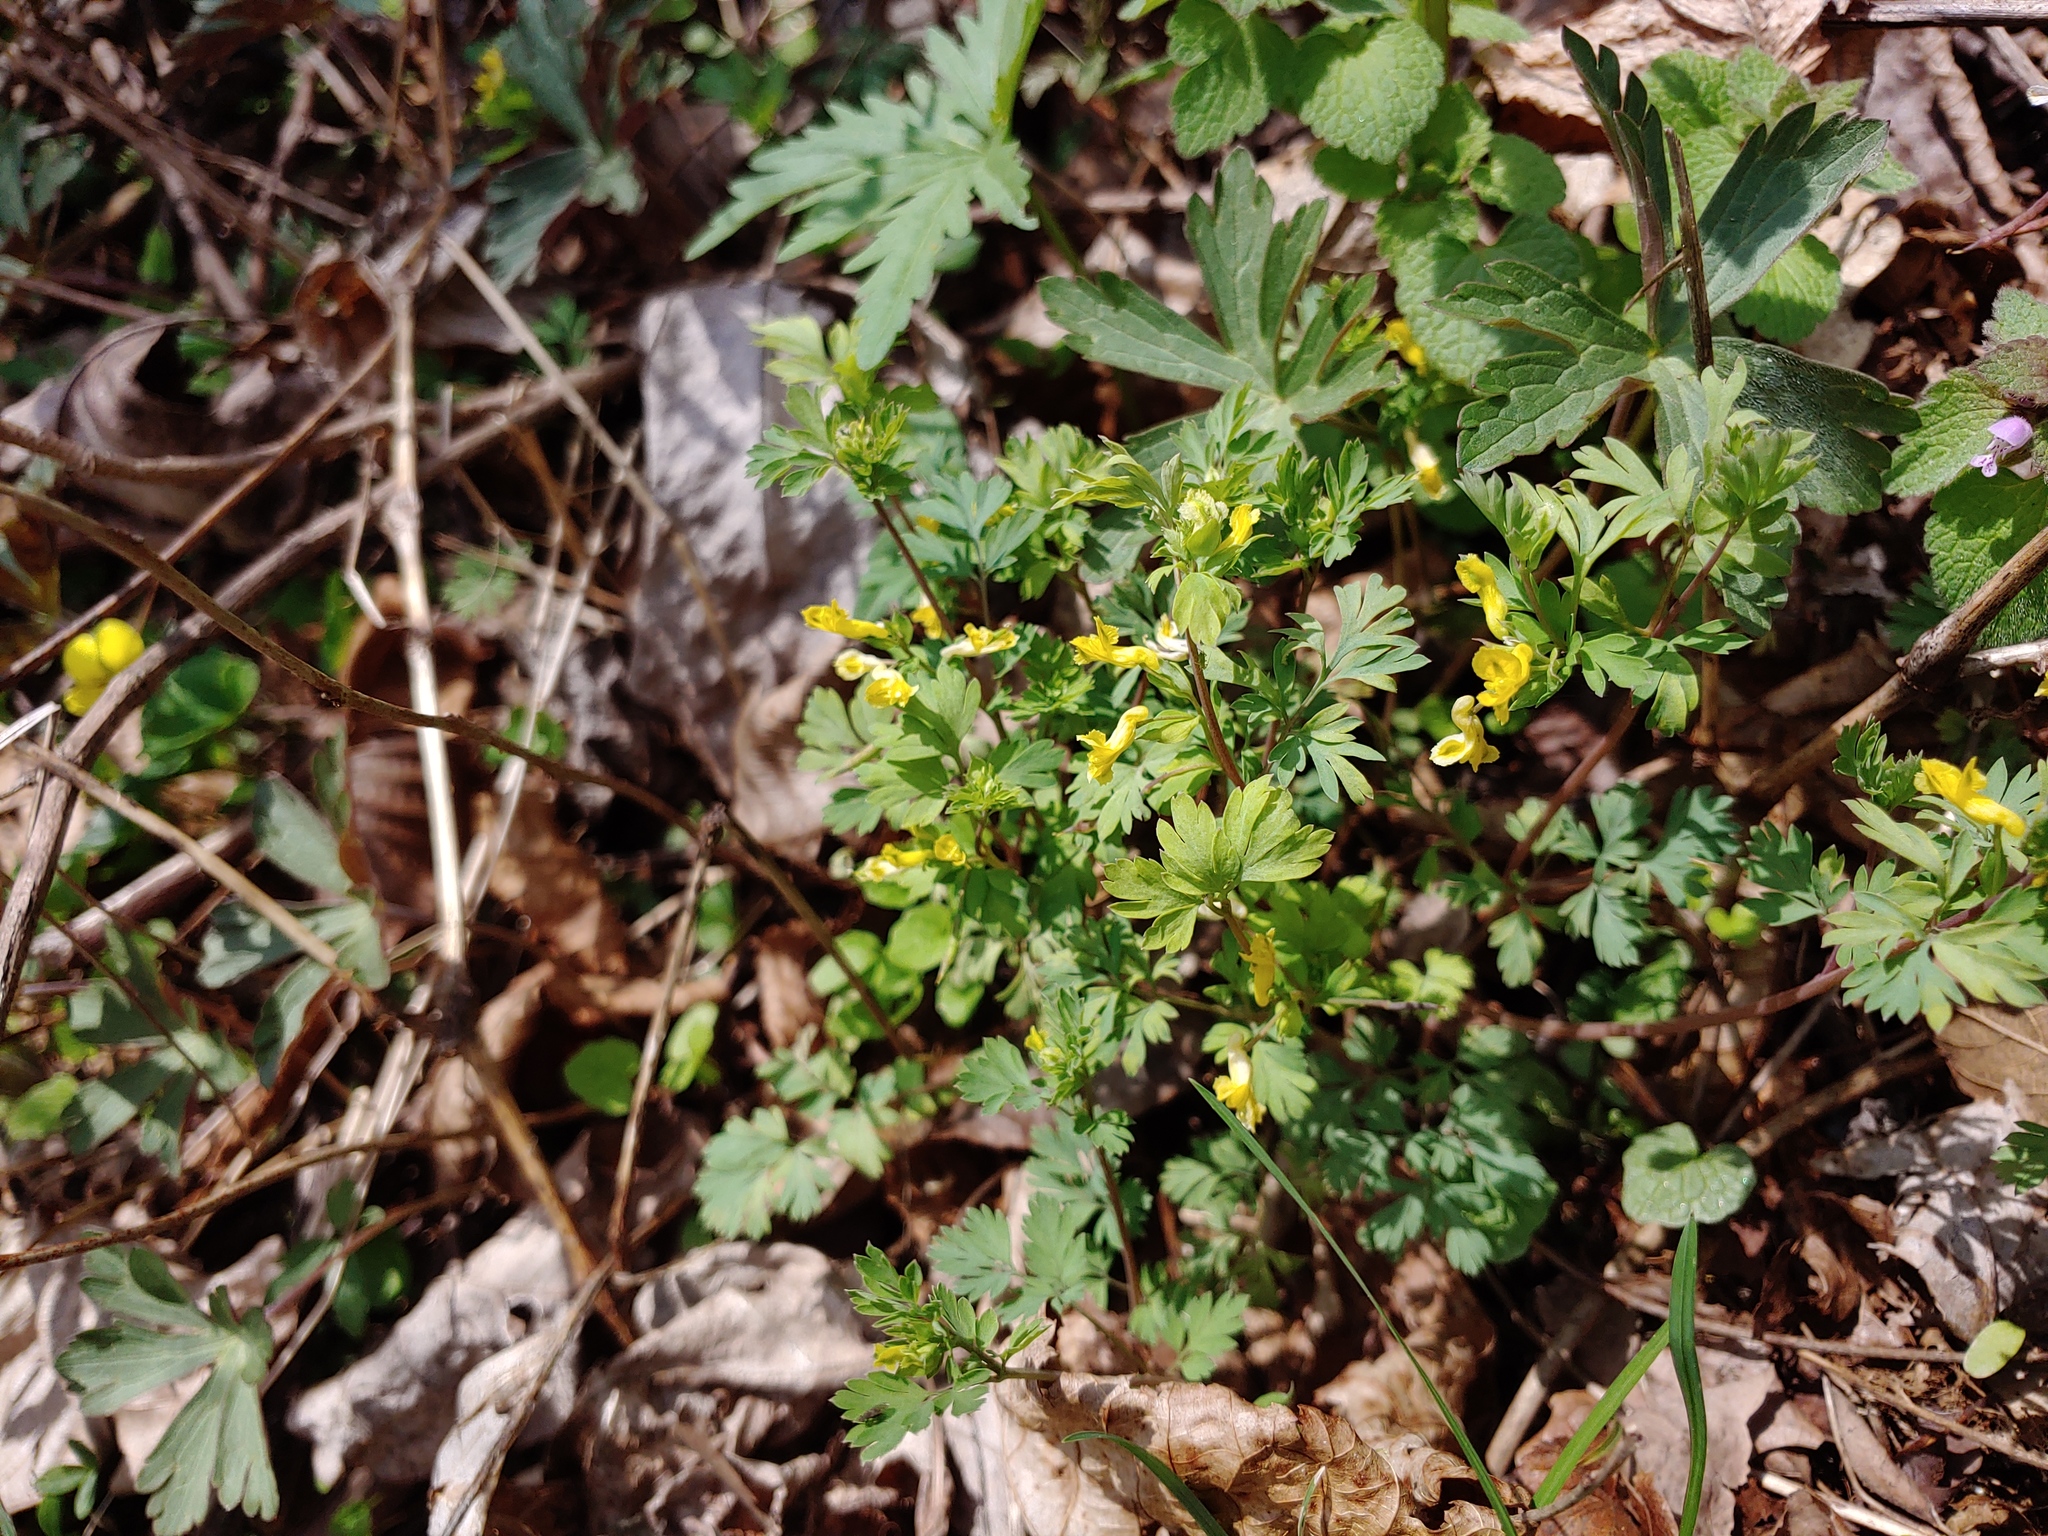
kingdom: Plantae
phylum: Tracheophyta
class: Magnoliopsida
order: Ranunculales
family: Papaveraceae
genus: Corydalis
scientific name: Corydalis flavula
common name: Yellow corydalis
